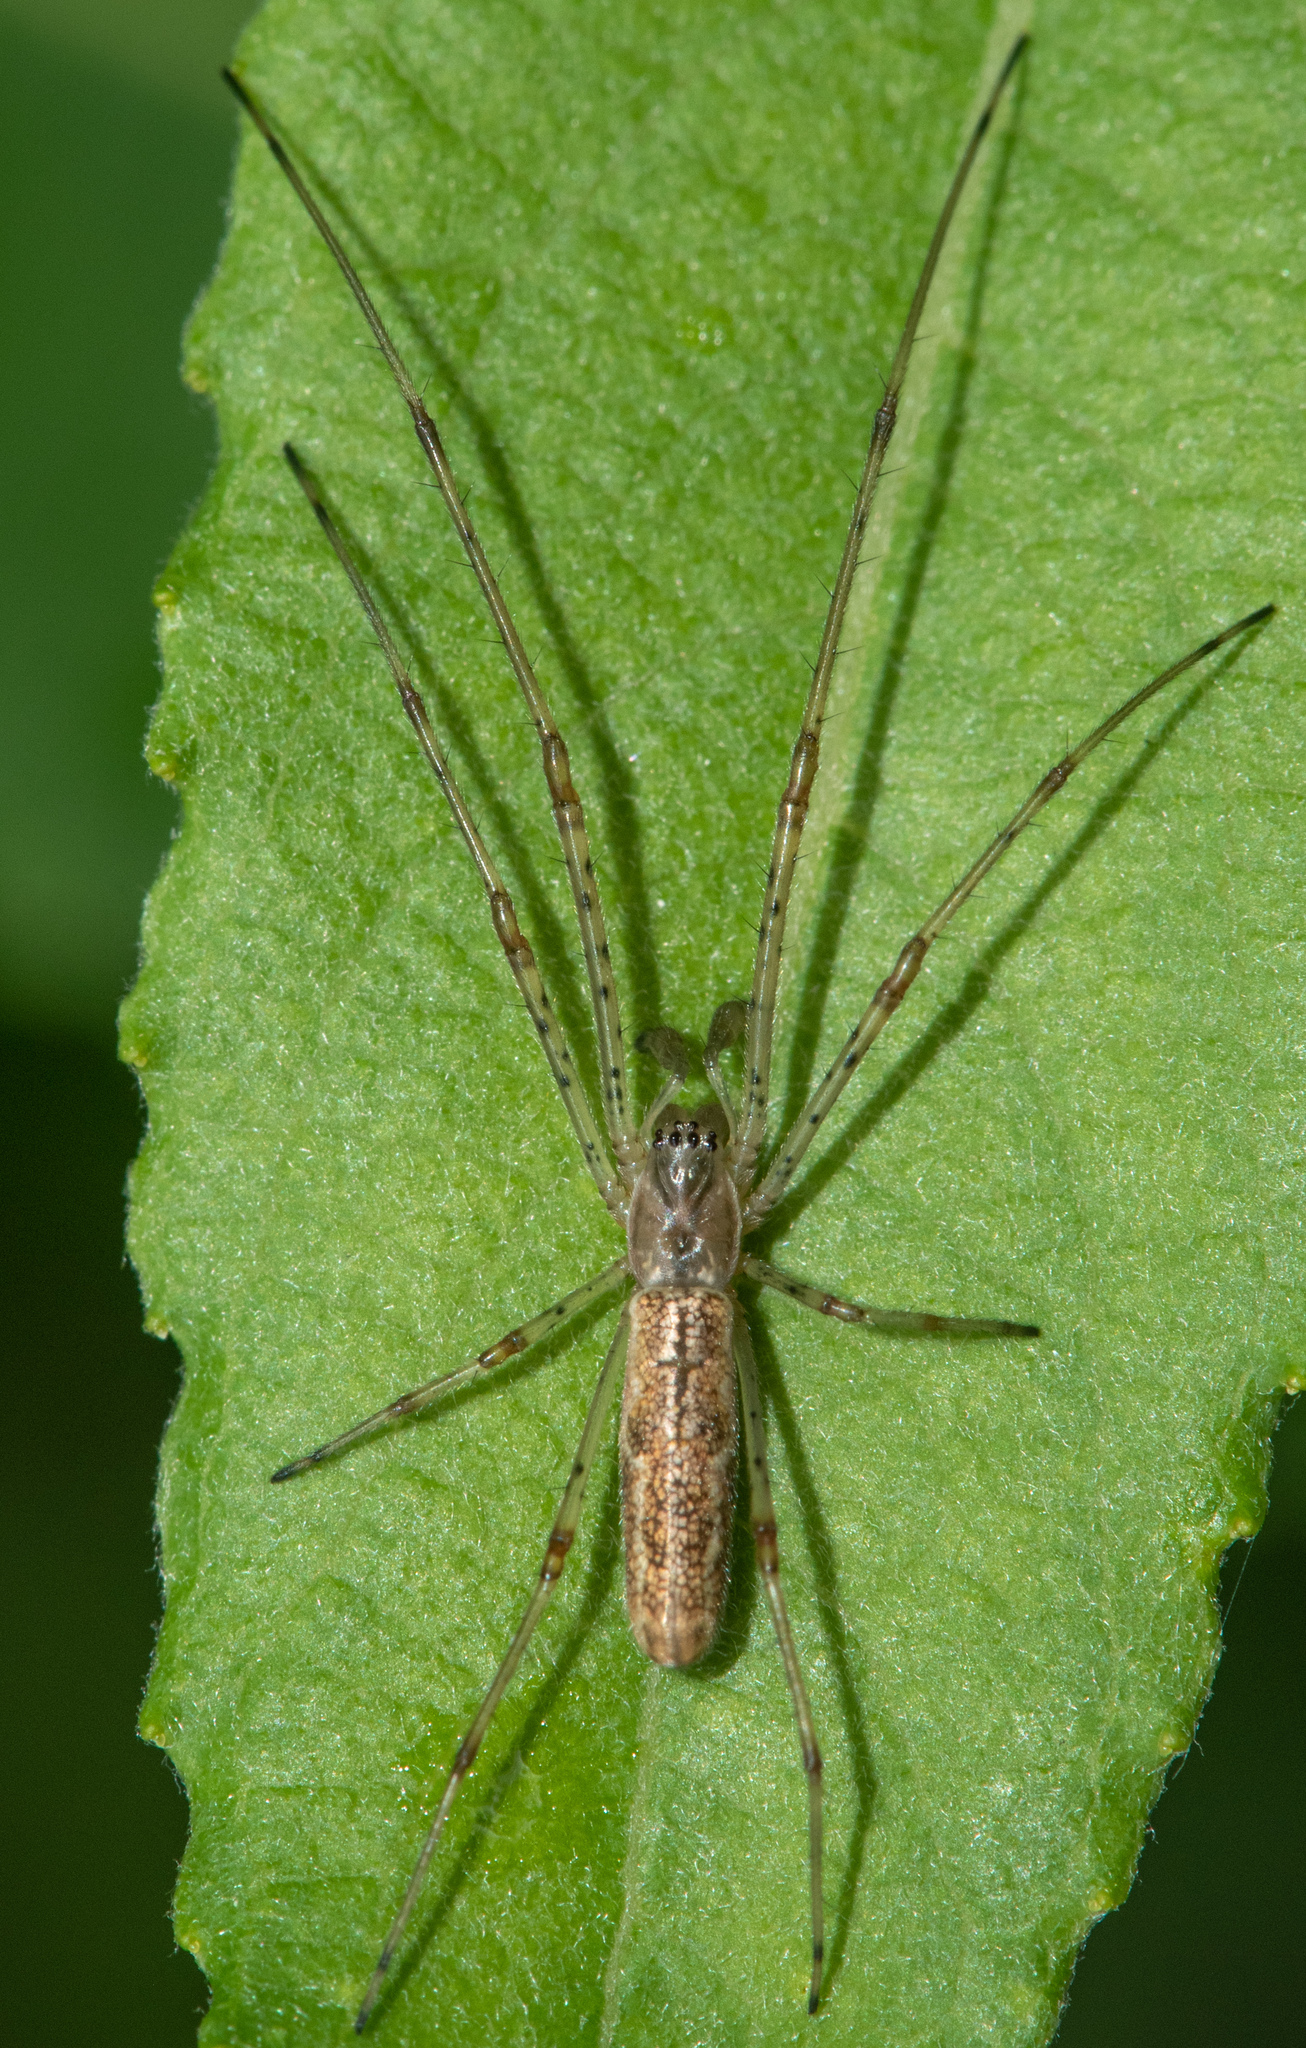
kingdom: Animalia
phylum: Arthropoda
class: Arachnida
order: Araneae
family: Tetragnathidae
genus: Tetragnatha
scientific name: Tetragnatha
